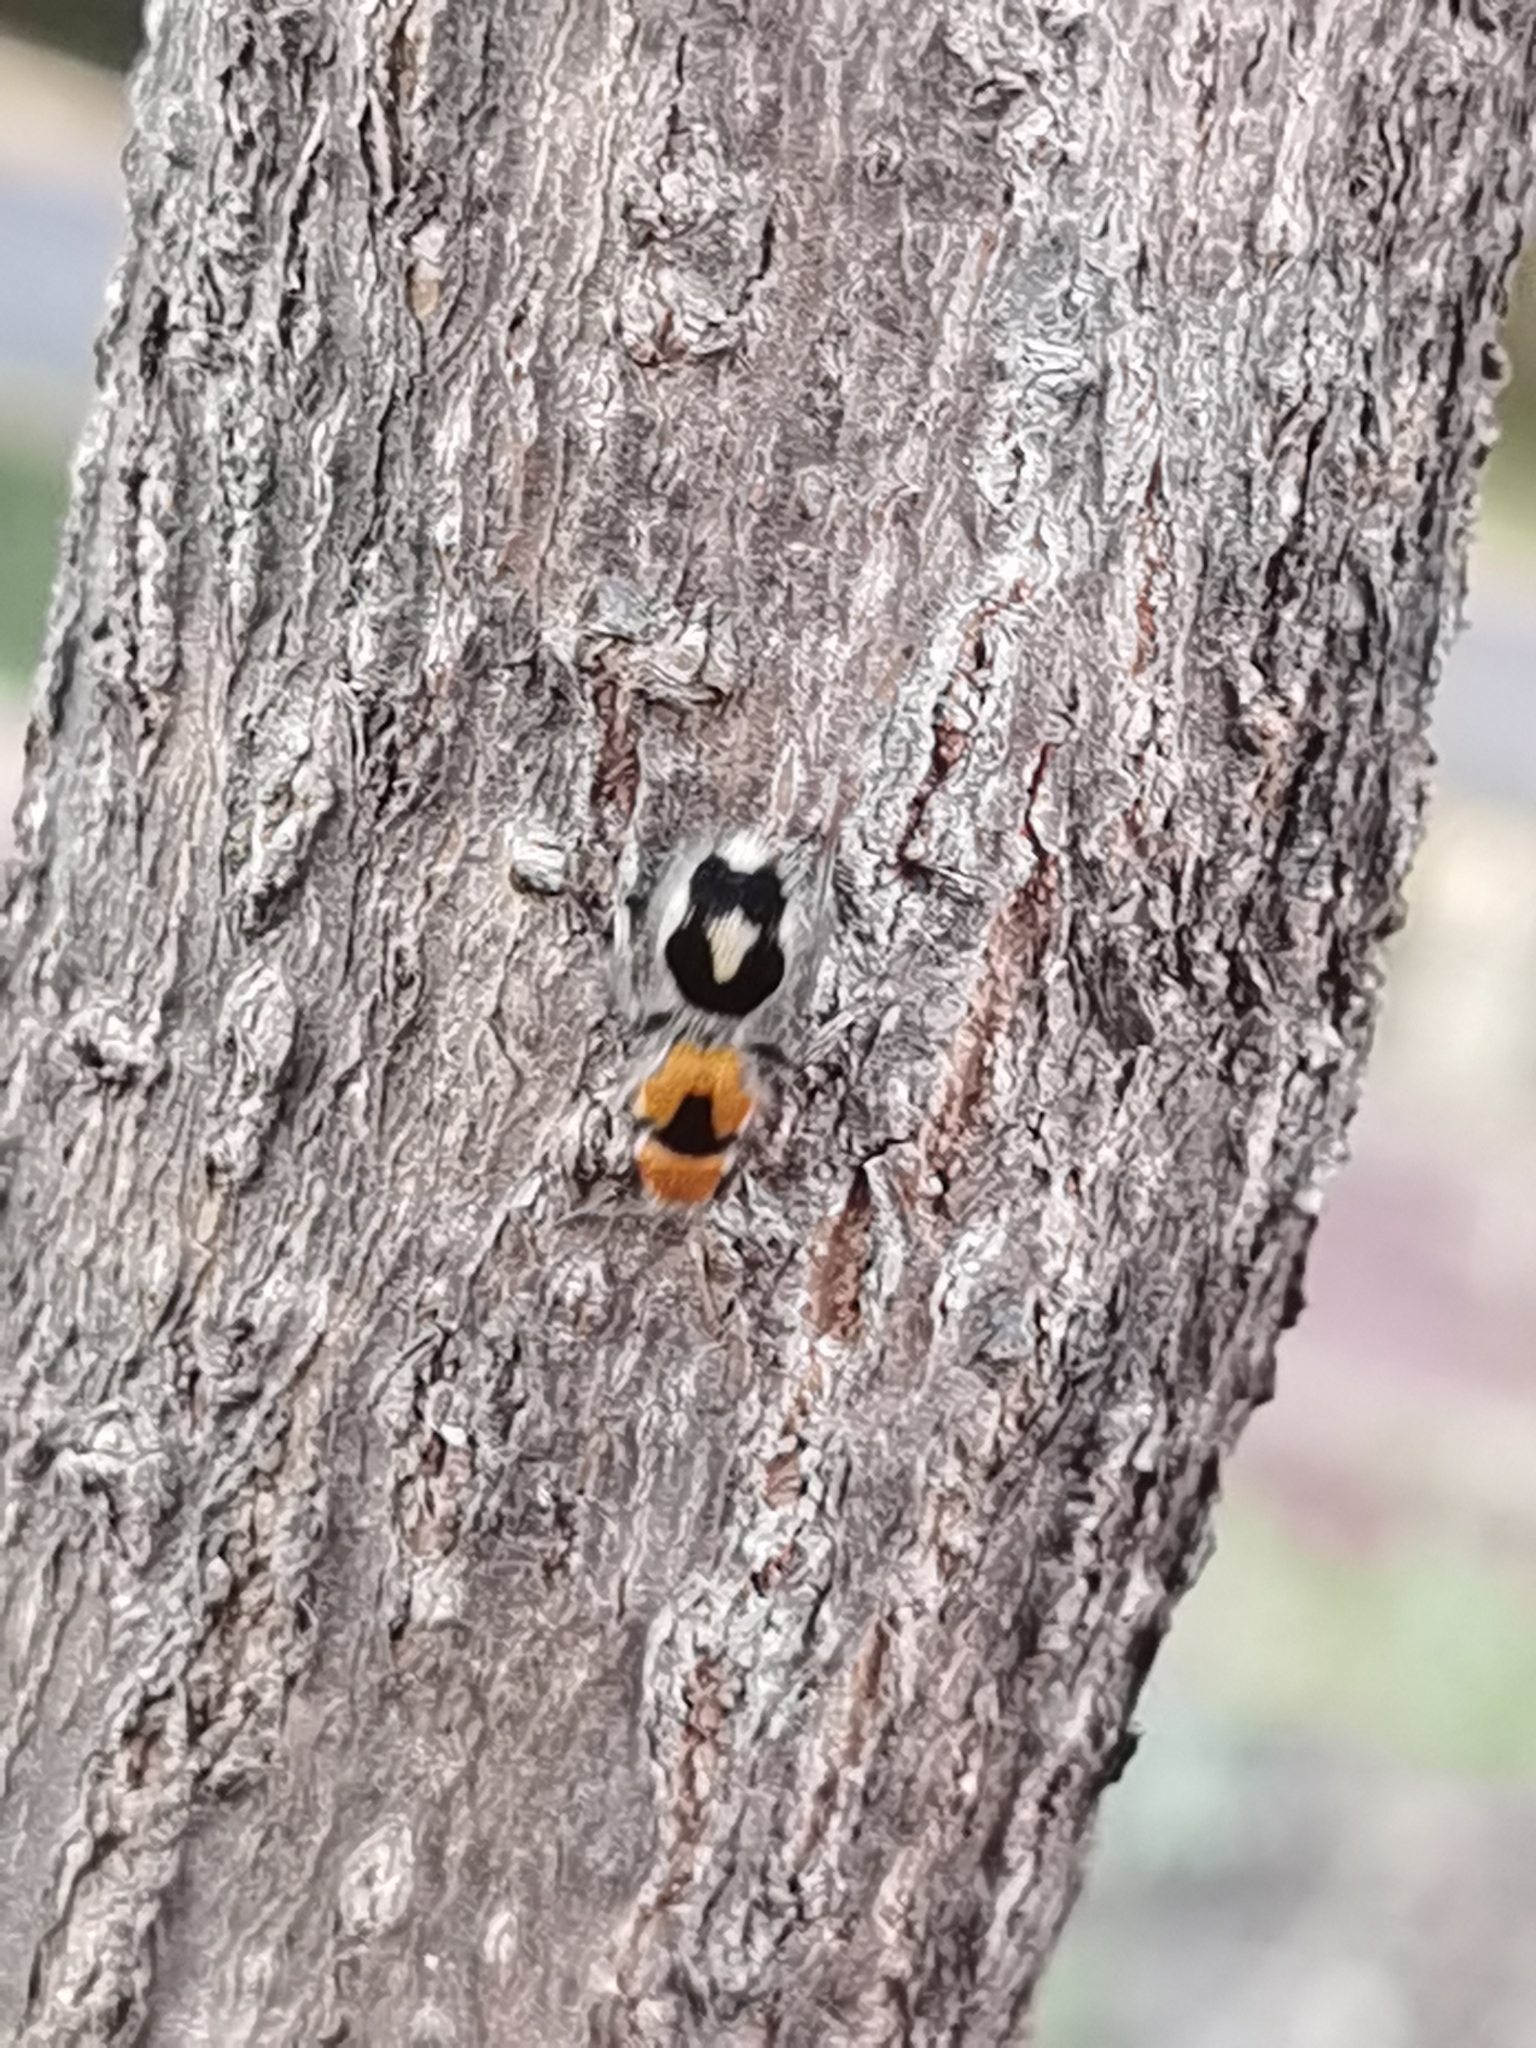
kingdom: Animalia
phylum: Arthropoda
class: Insecta
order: Hymenoptera
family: Mutillidae
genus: Dasymutilla
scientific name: Dasymutilla canella
